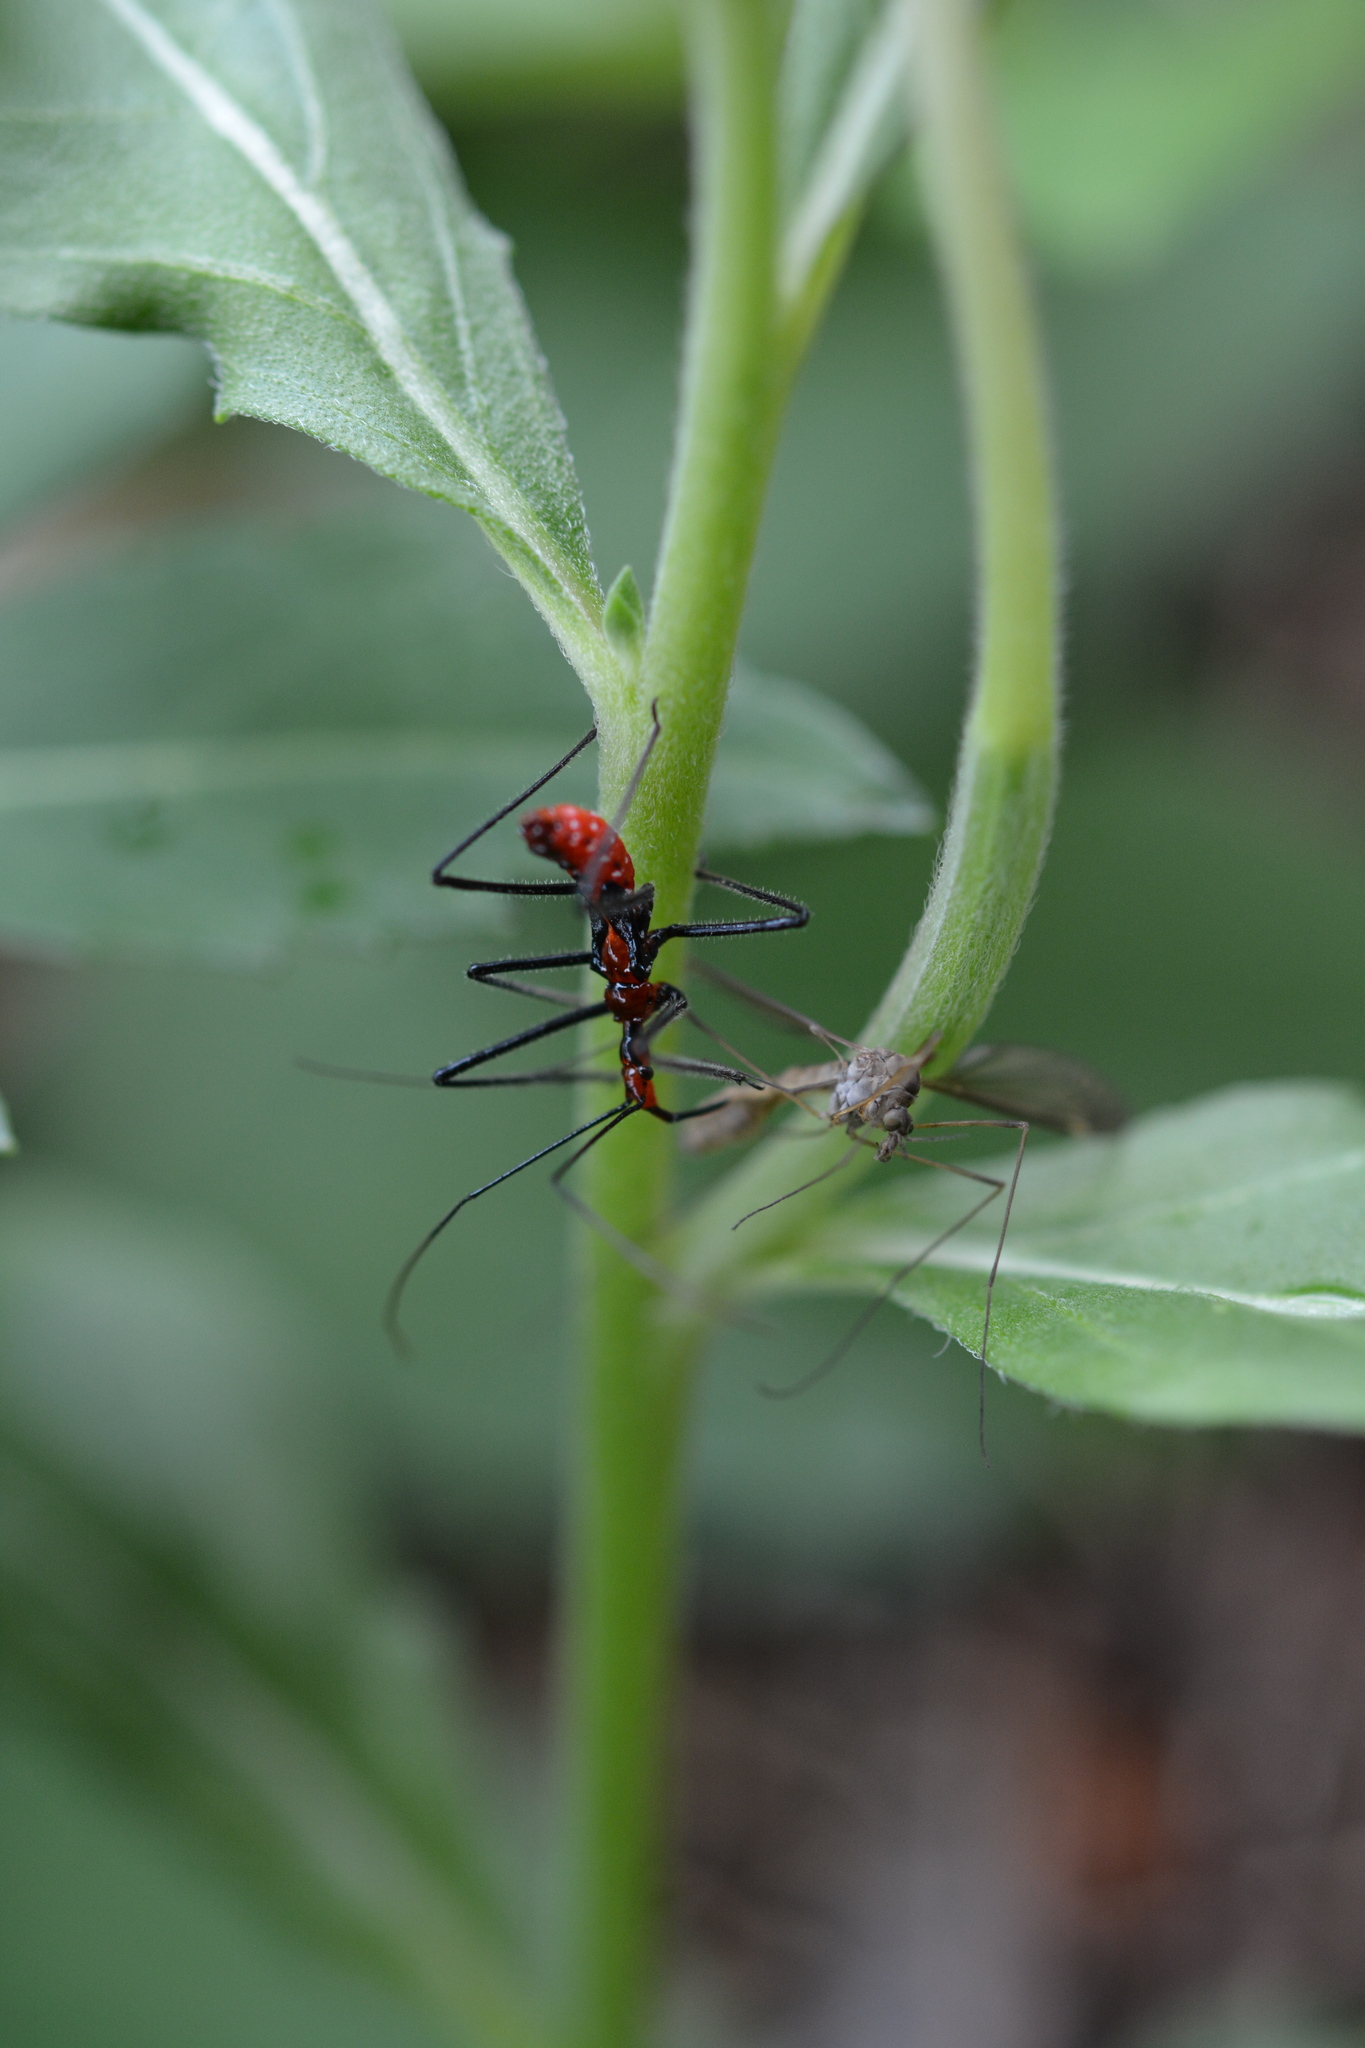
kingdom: Animalia
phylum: Arthropoda
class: Insecta
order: Hemiptera
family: Reduviidae
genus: Zelus
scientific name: Zelus longipes
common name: Milkweed assassin bug
